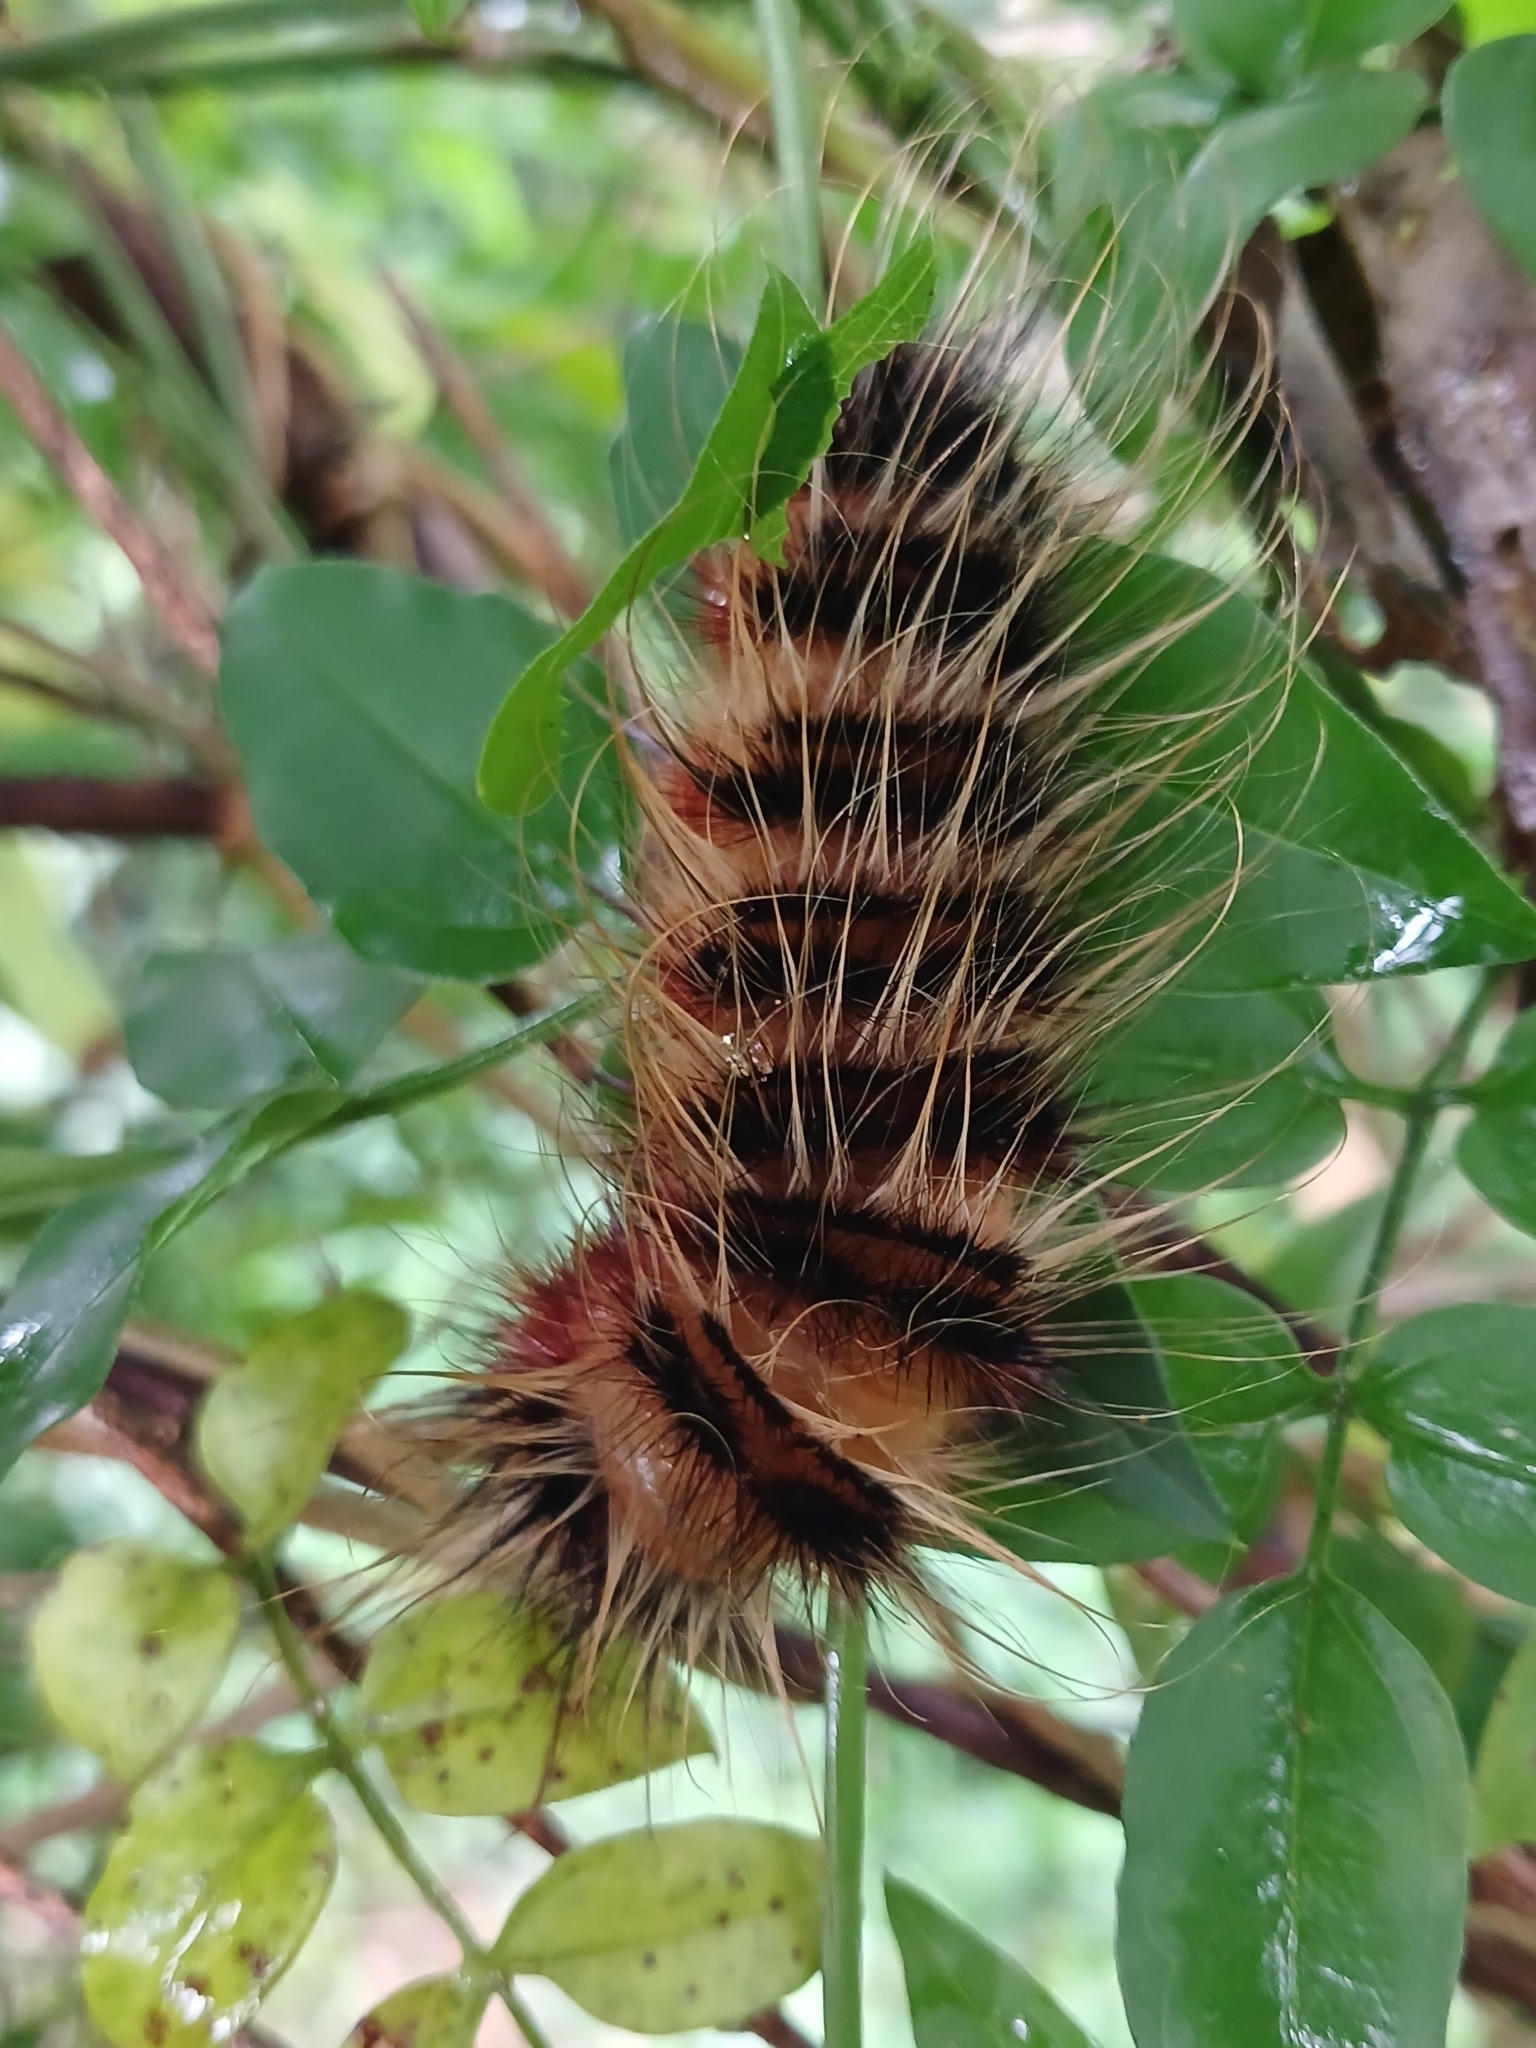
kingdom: Animalia
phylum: Arthropoda
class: Insecta
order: Lepidoptera
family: Eupterotidae
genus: Striphnopteryx
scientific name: Striphnopteryx edulis
